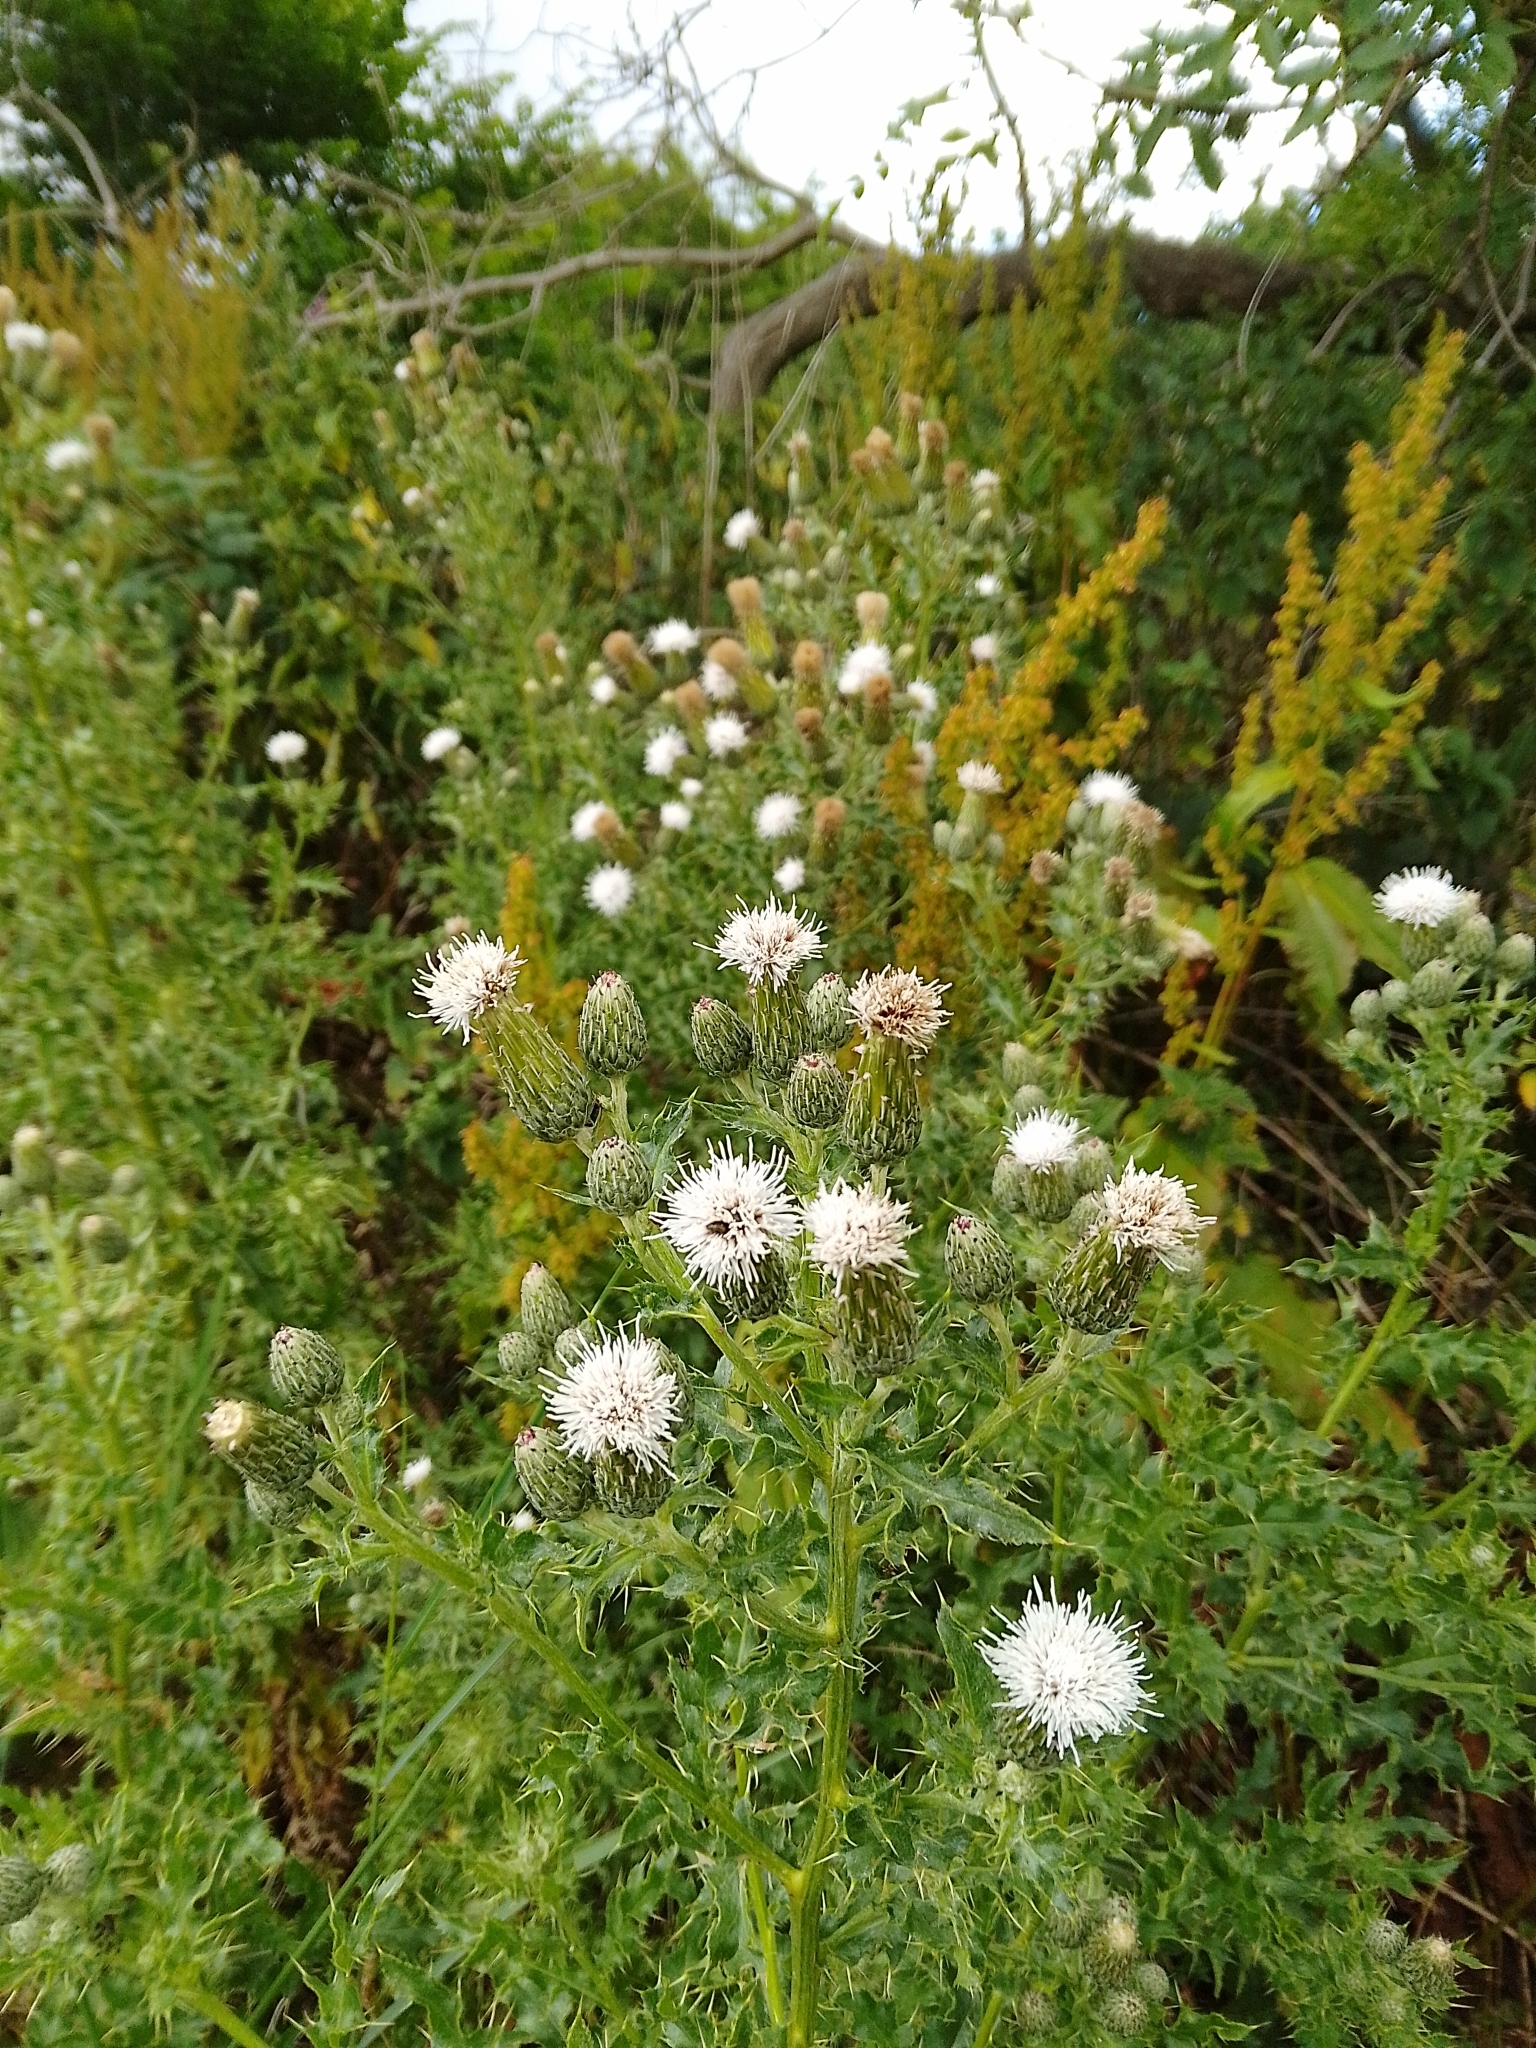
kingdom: Plantae
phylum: Tracheophyta
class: Magnoliopsida
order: Asterales
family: Asteraceae
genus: Cirsium
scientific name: Cirsium arvense
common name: Creeping thistle
